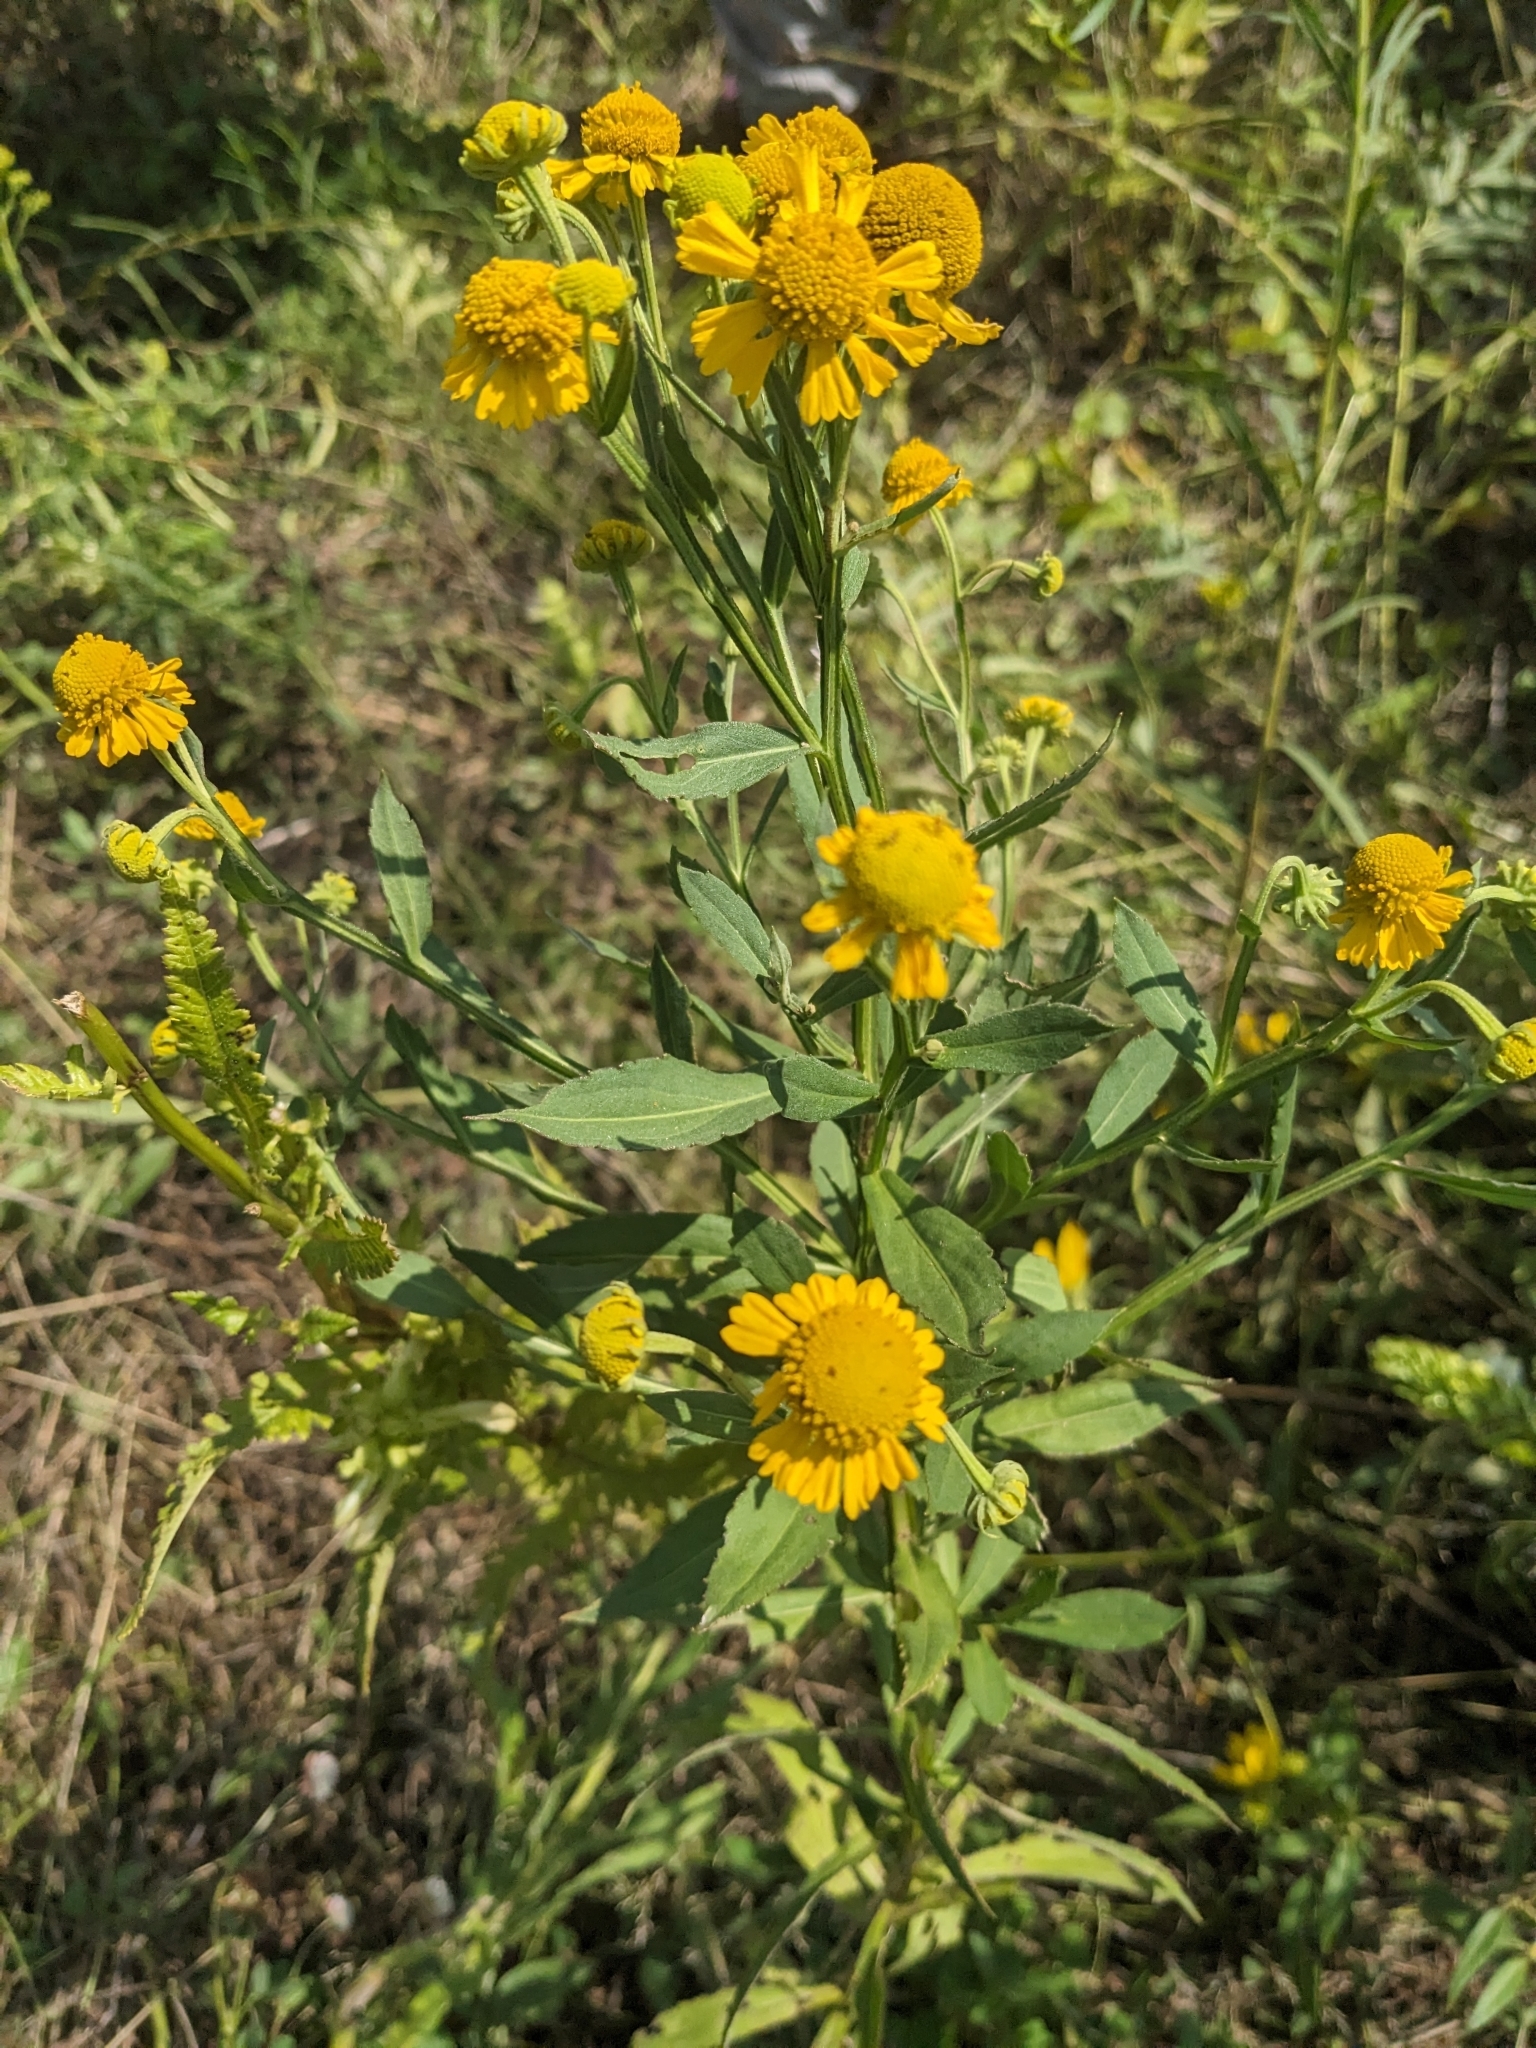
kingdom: Plantae
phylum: Tracheophyta
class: Magnoliopsida
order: Asterales
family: Asteraceae
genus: Helenium
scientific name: Helenium autumnale
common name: Sneezeweed
